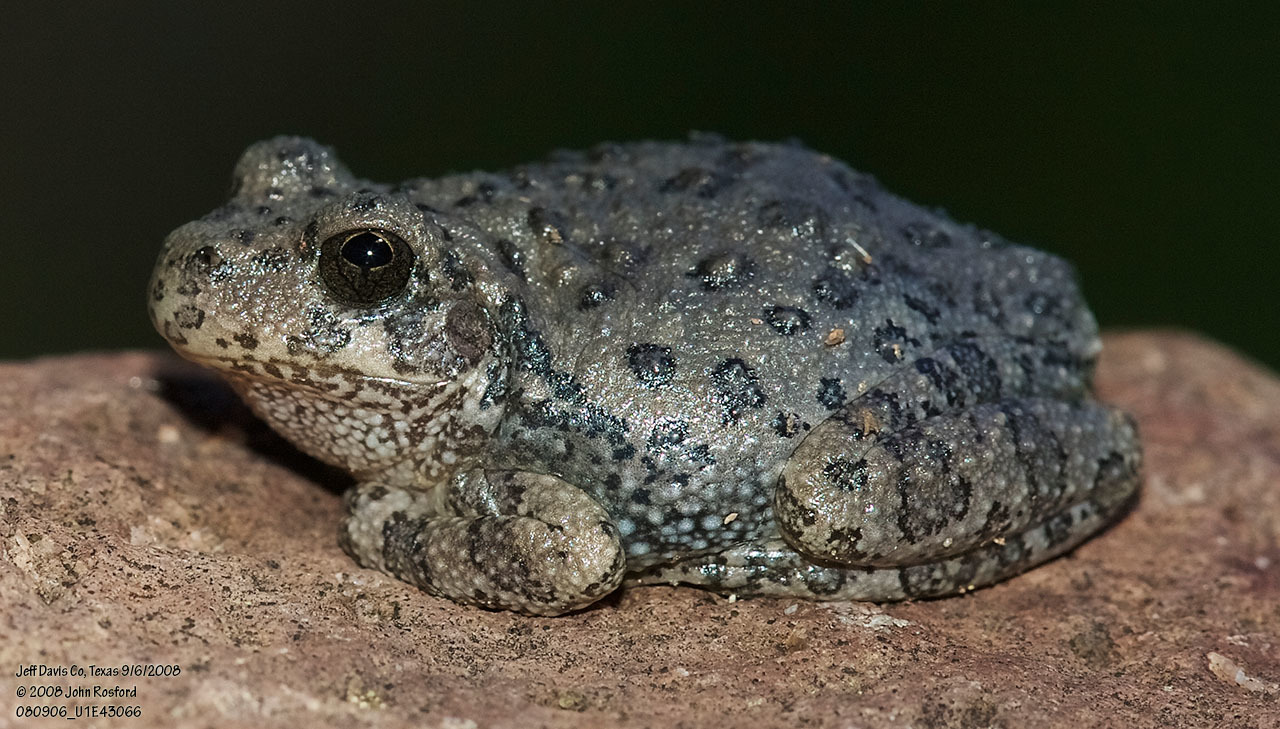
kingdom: Animalia
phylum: Chordata
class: Amphibia
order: Anura
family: Hylidae
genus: Dryophytes
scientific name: Dryophytes arenicolor
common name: Canyon treefrog
